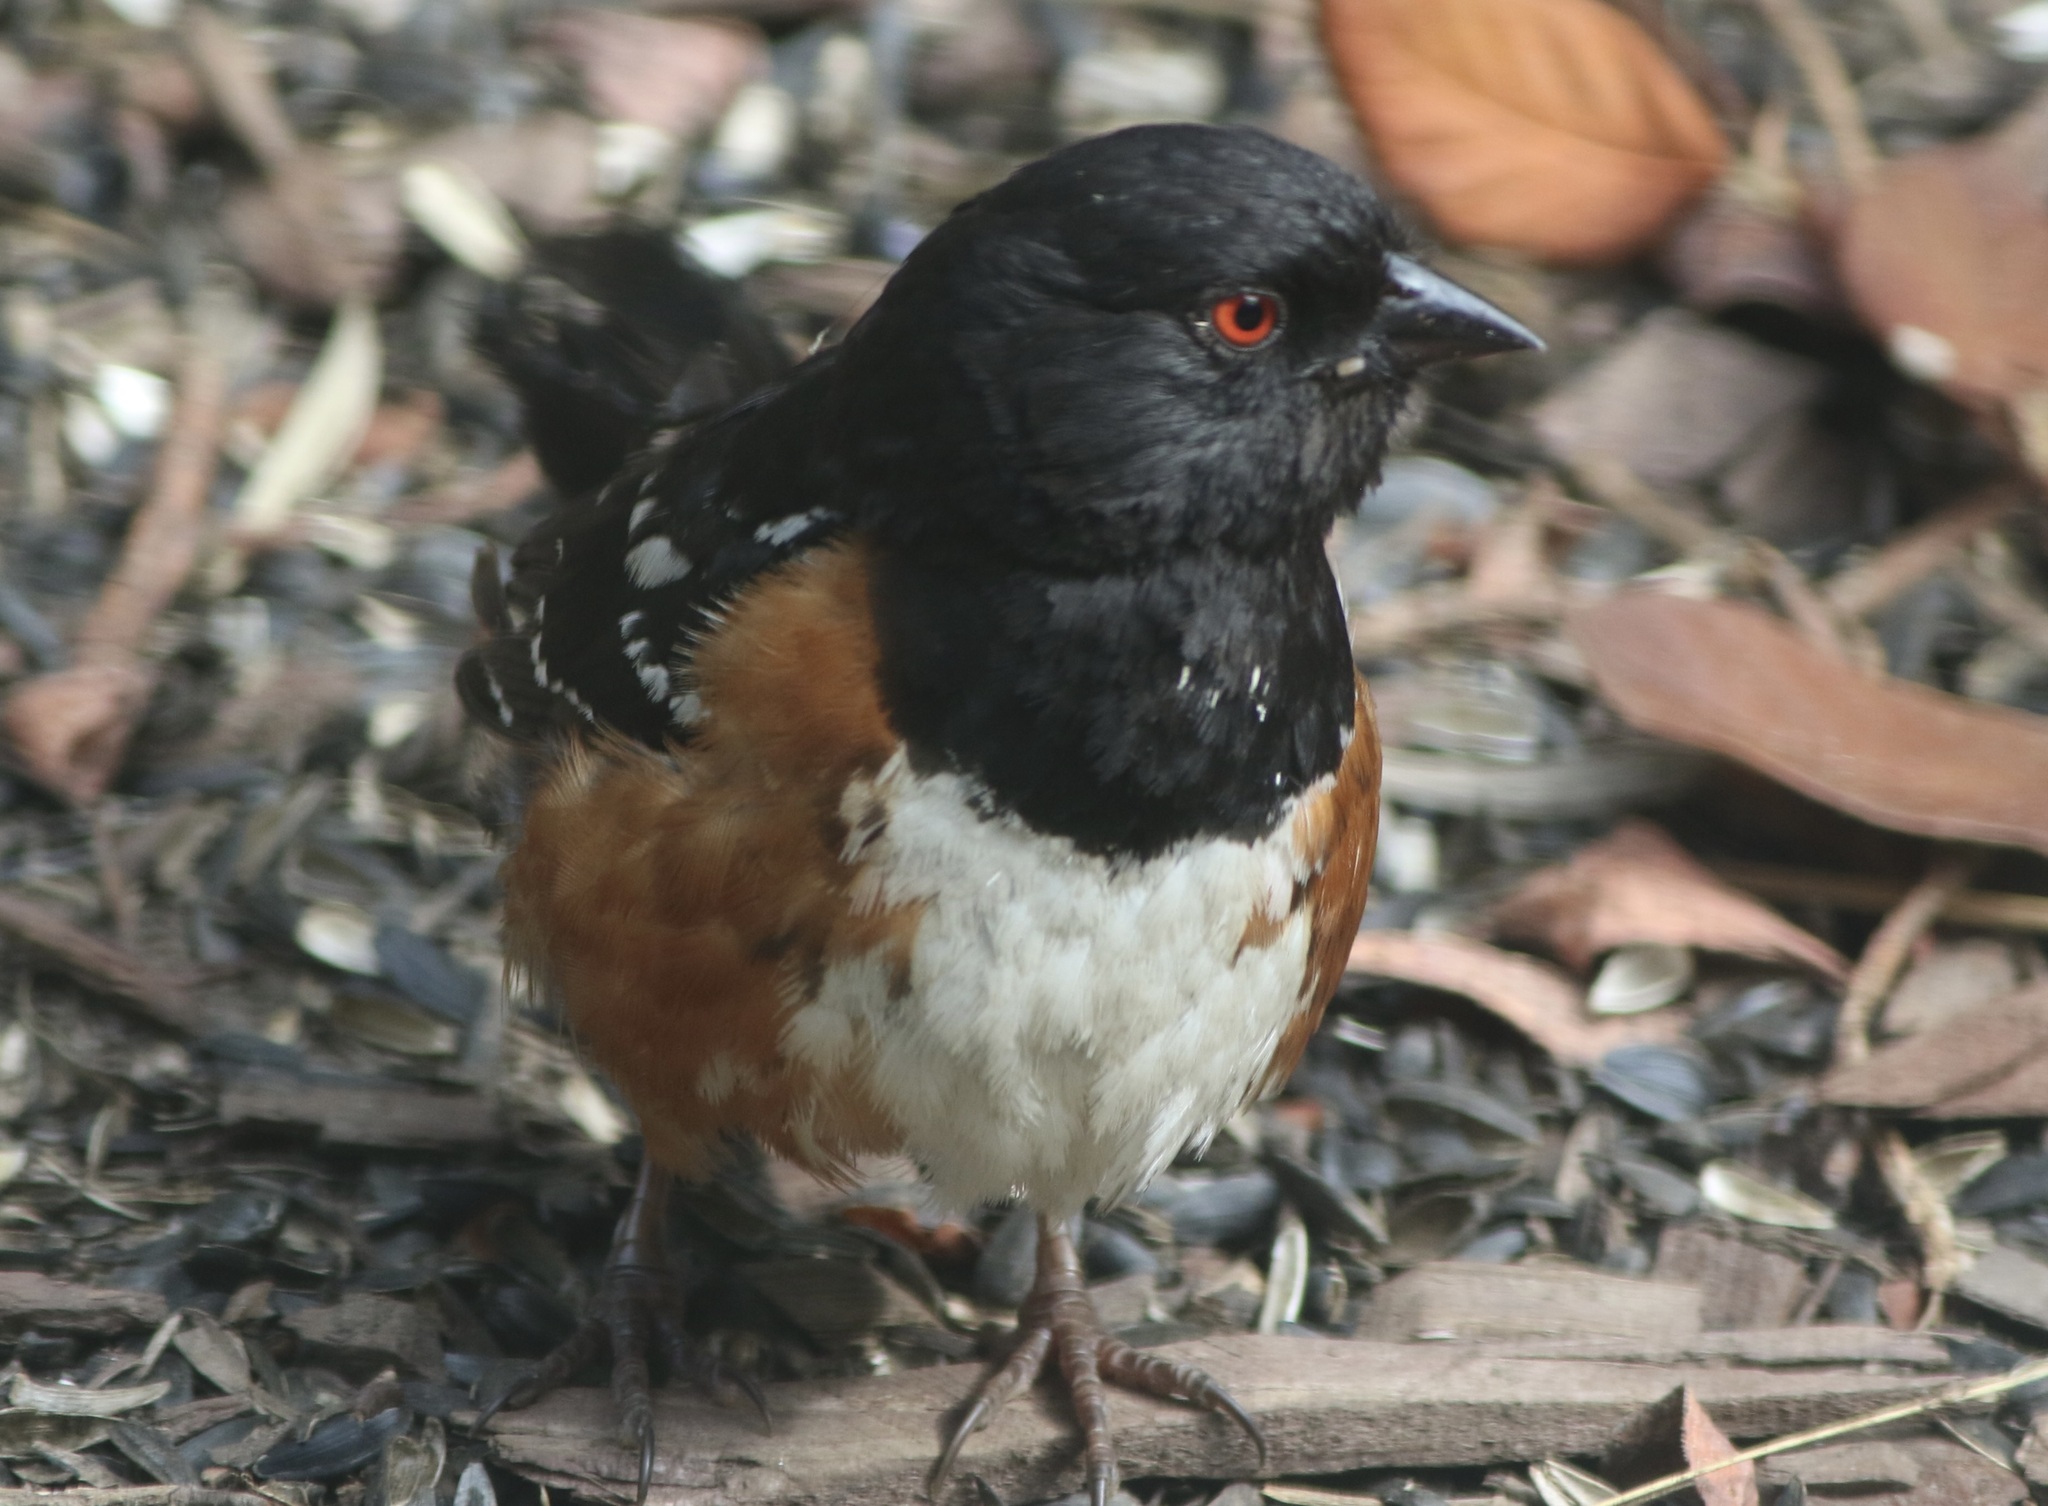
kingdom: Animalia
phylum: Chordata
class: Aves
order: Passeriformes
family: Passerellidae
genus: Pipilo
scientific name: Pipilo maculatus
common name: Spotted towhee
